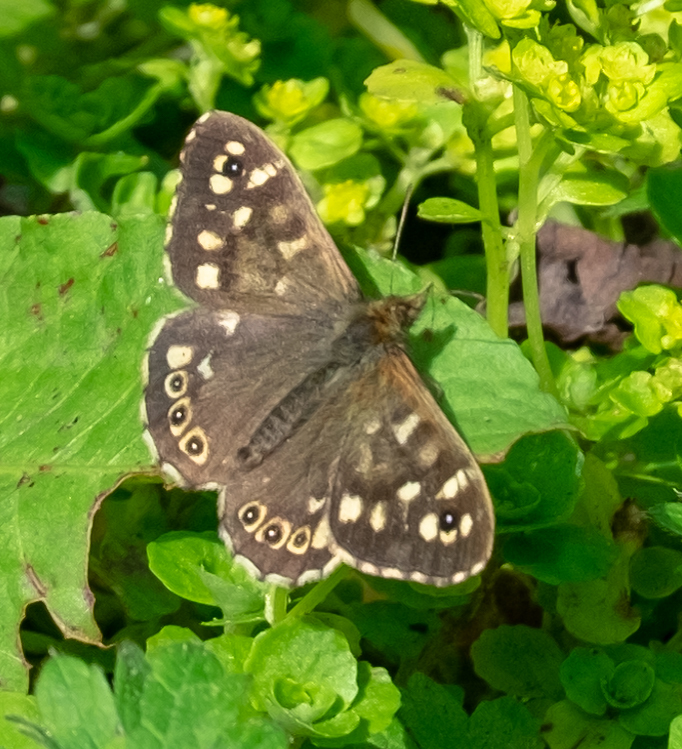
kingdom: Animalia
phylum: Arthropoda
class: Insecta
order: Lepidoptera
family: Nymphalidae
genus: Pararge
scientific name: Pararge aegeria
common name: Speckled wood
